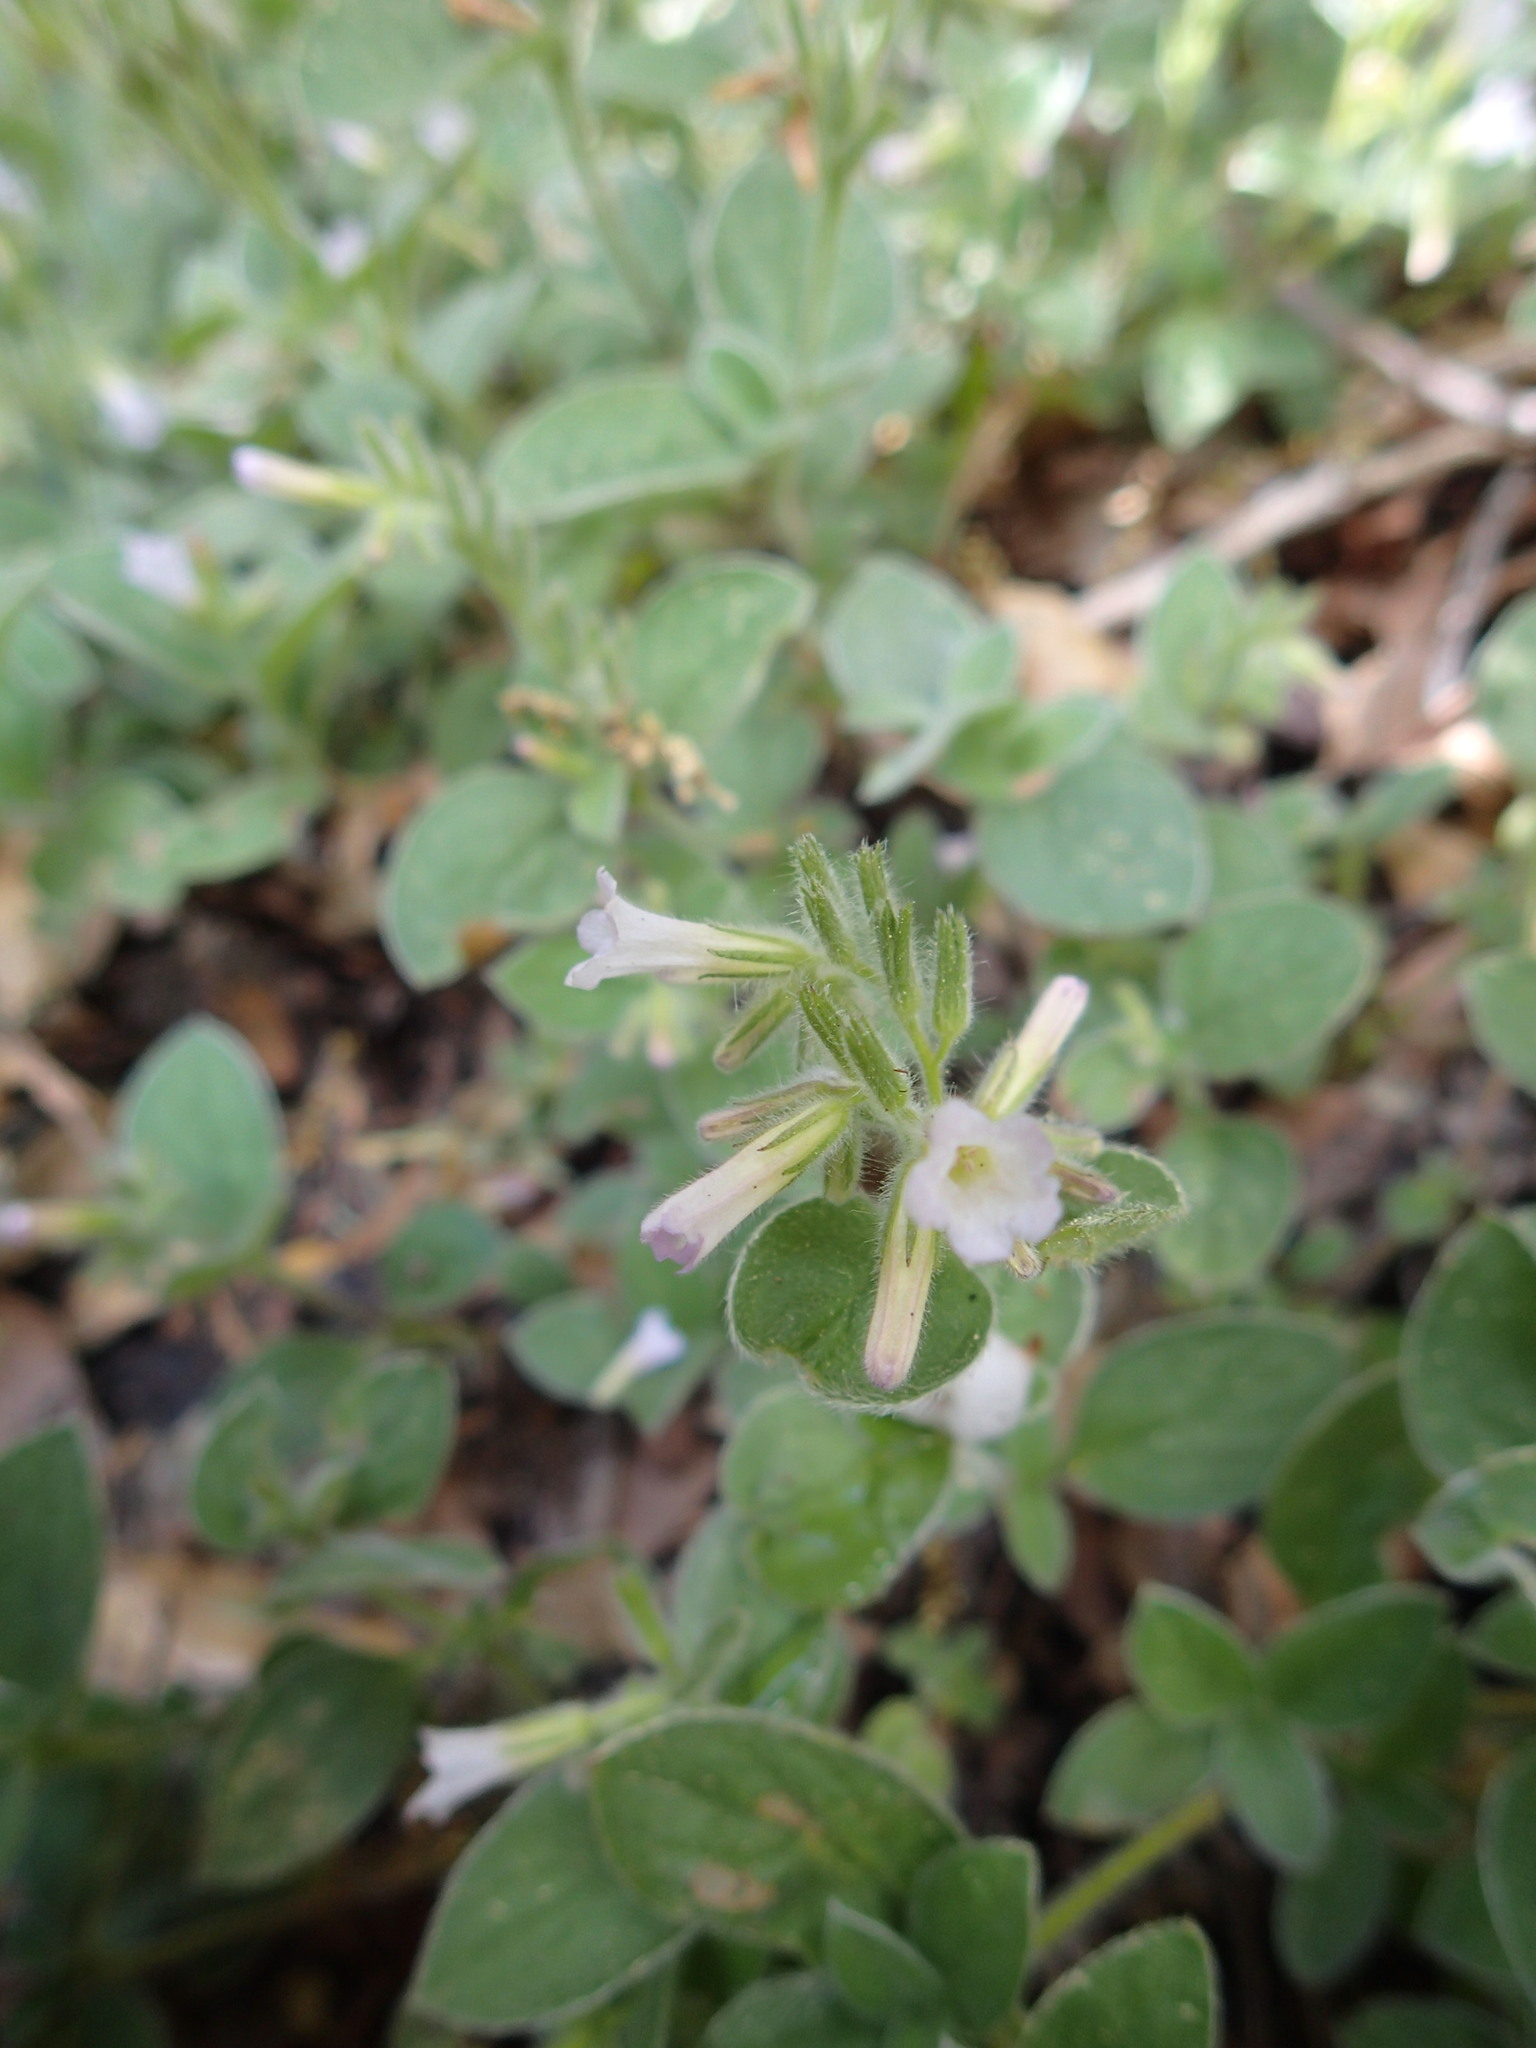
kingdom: Plantae
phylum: Tracheophyta
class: Magnoliopsida
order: Boraginales
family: Hydrophyllaceae
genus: Draperia
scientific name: Draperia systyla
